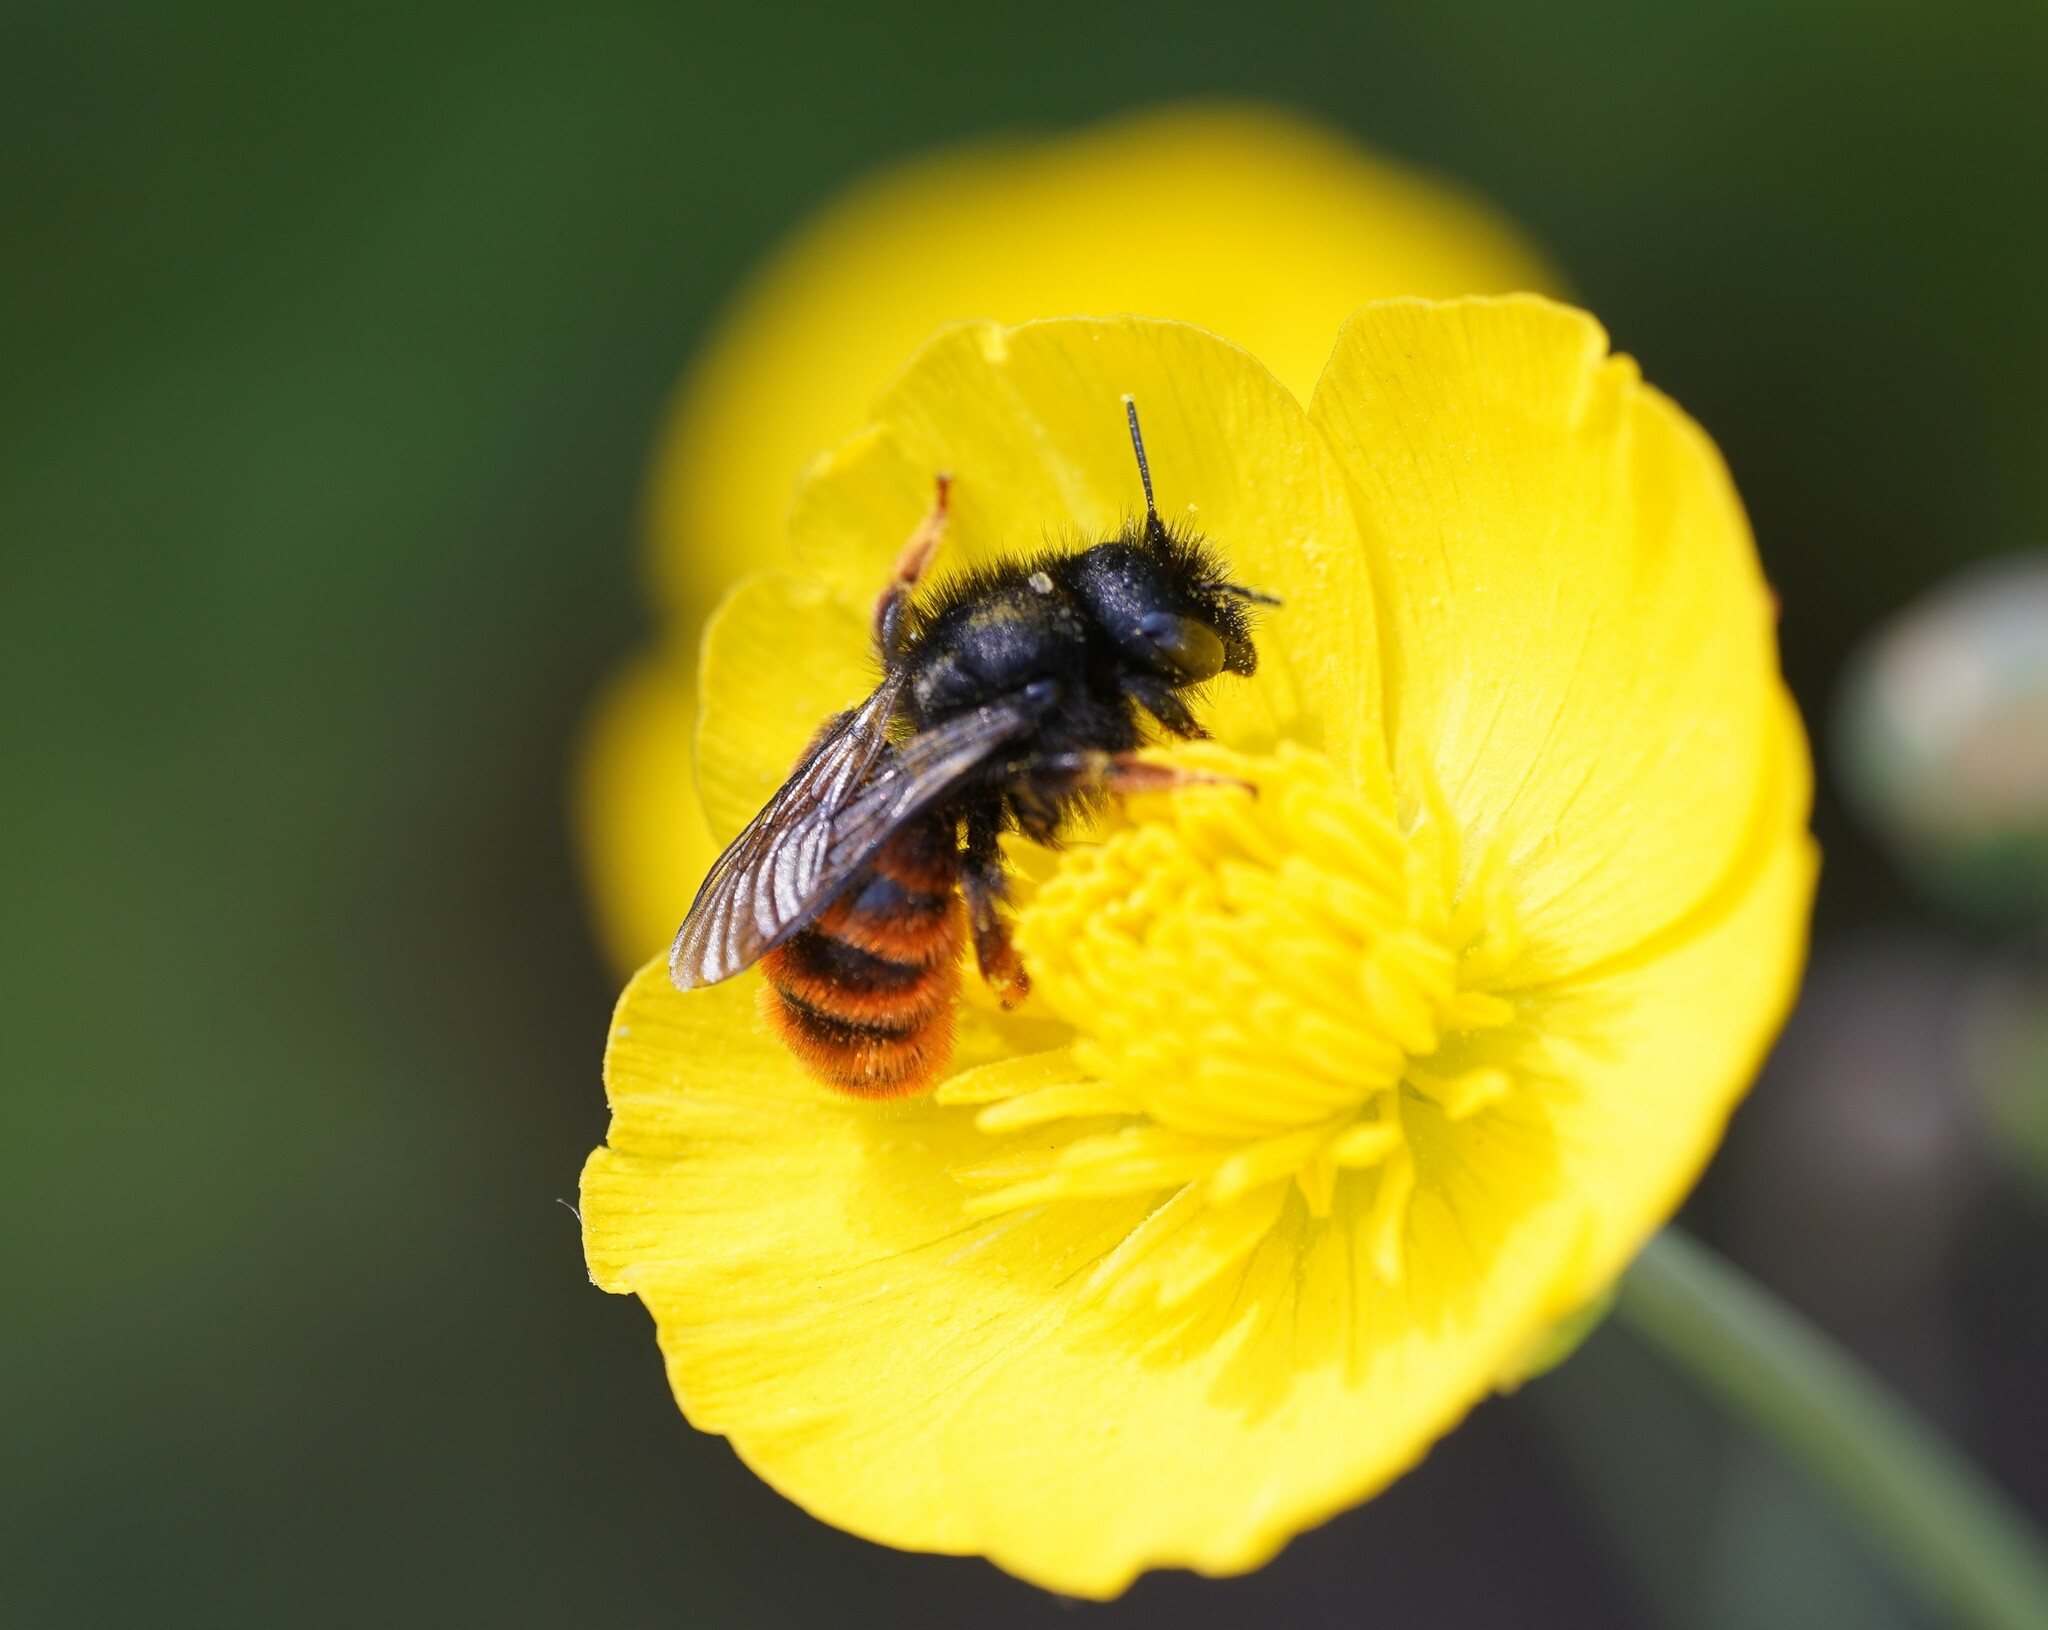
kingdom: Animalia
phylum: Arthropoda
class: Insecta
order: Hymenoptera
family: Megachilidae
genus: Osmia
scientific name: Osmia bicolor
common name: Red-tailed mason bee
